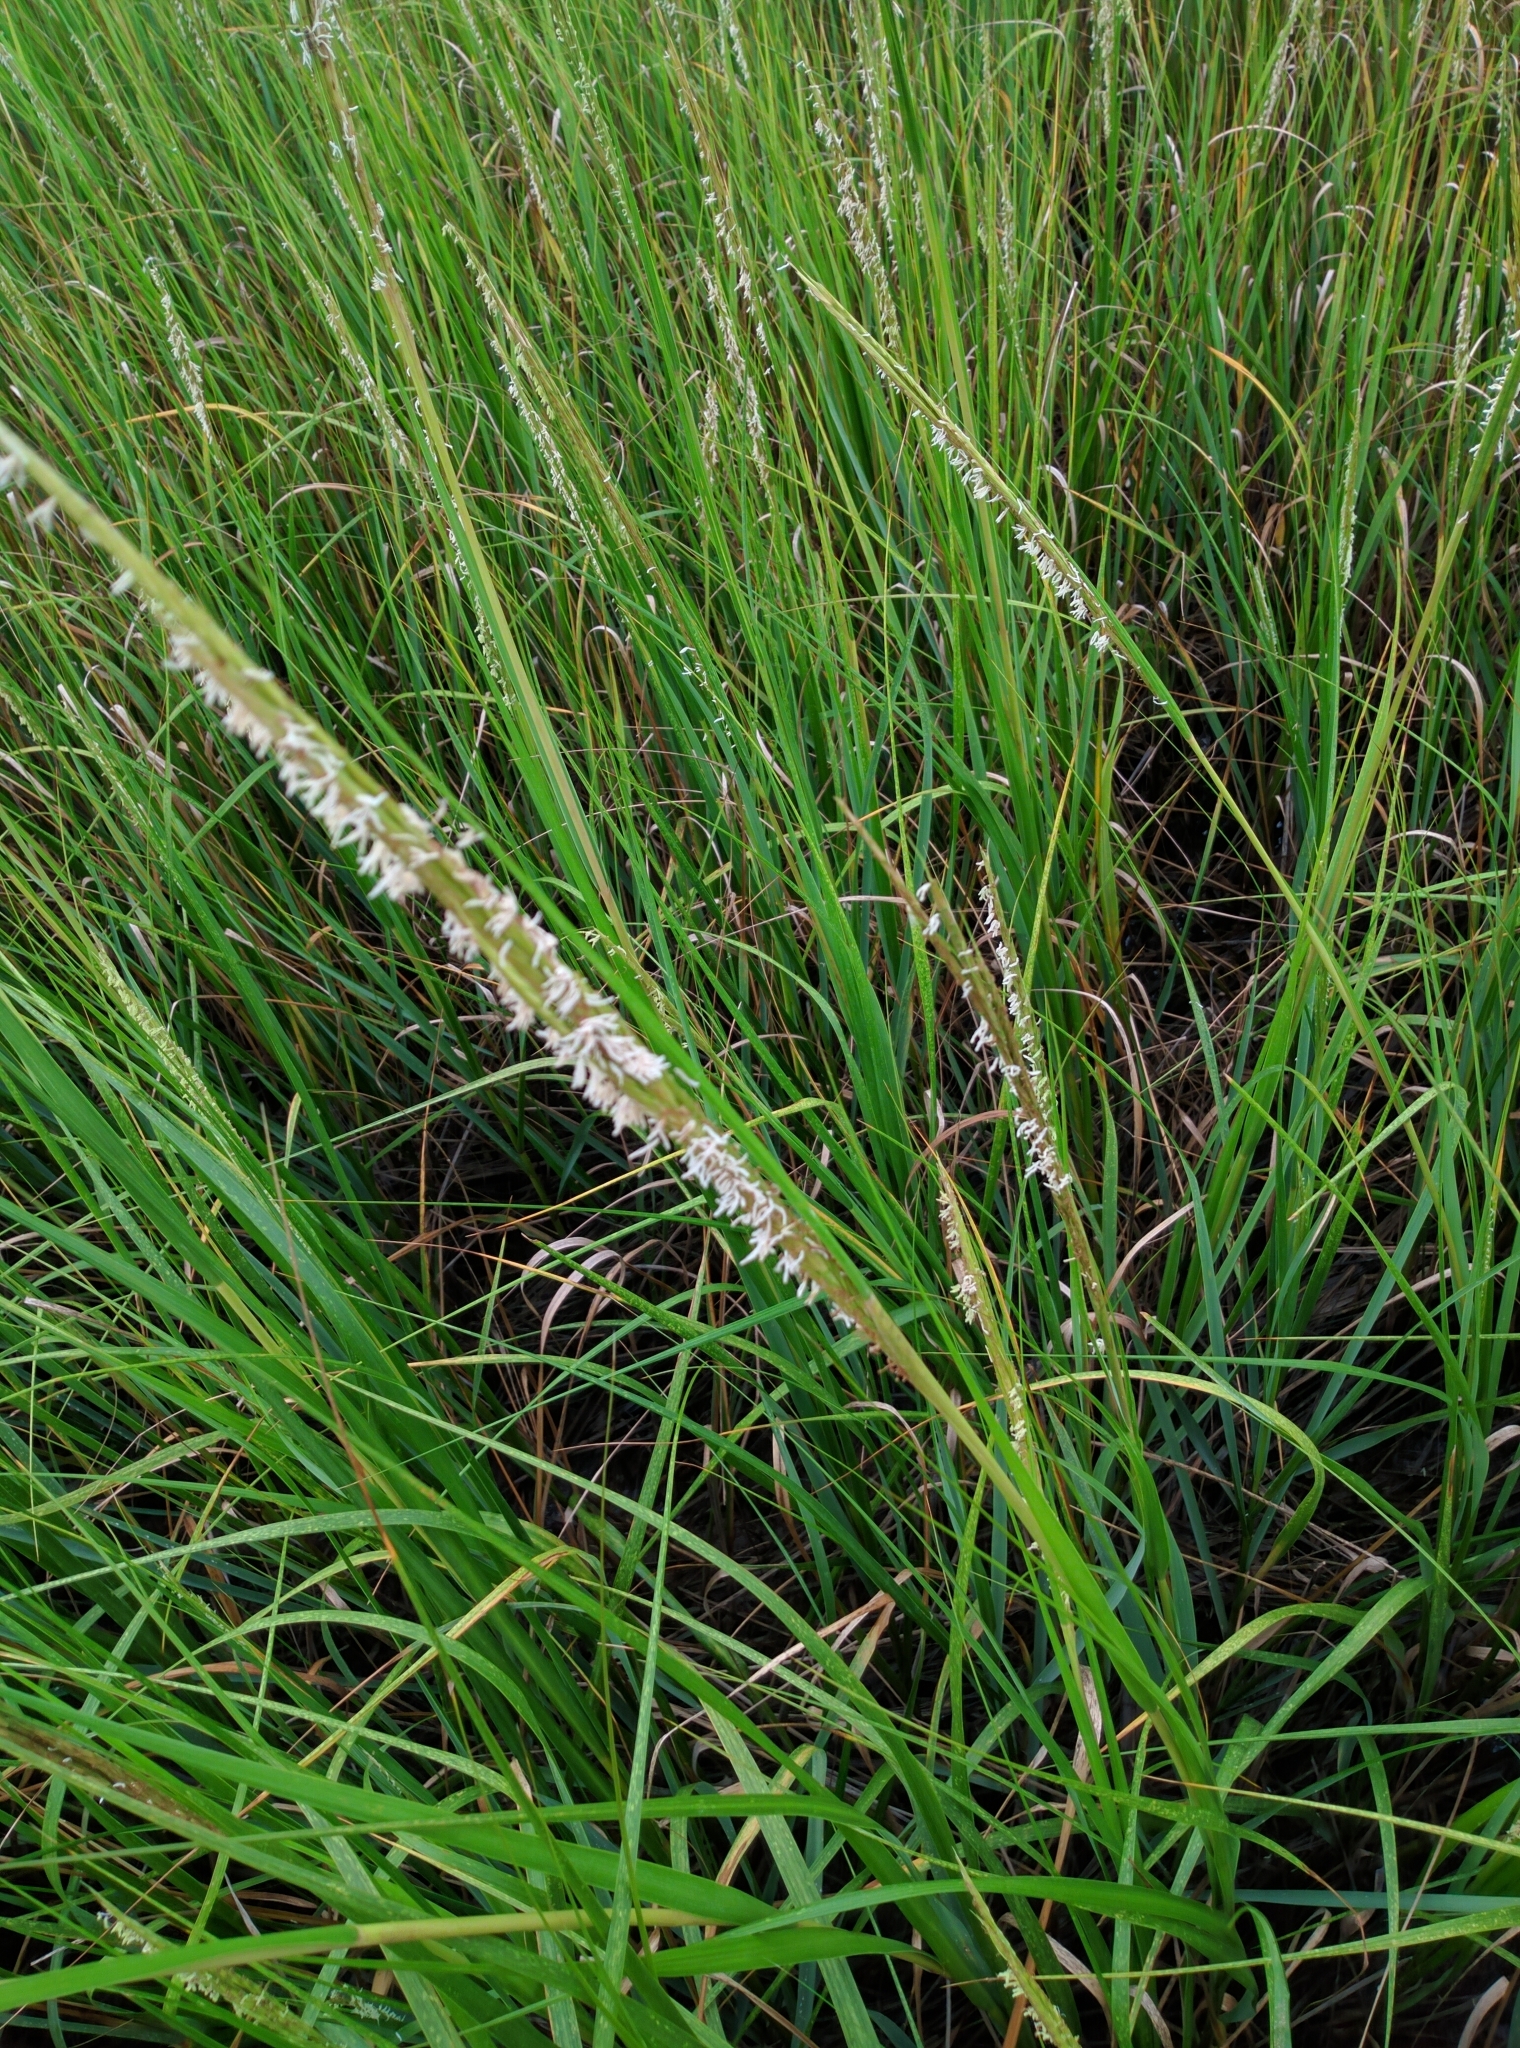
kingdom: Plantae
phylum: Tracheophyta
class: Liliopsida
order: Poales
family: Poaceae
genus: Sporobolus
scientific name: Sporobolus alterniflorus
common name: Atlantic cordgrass
